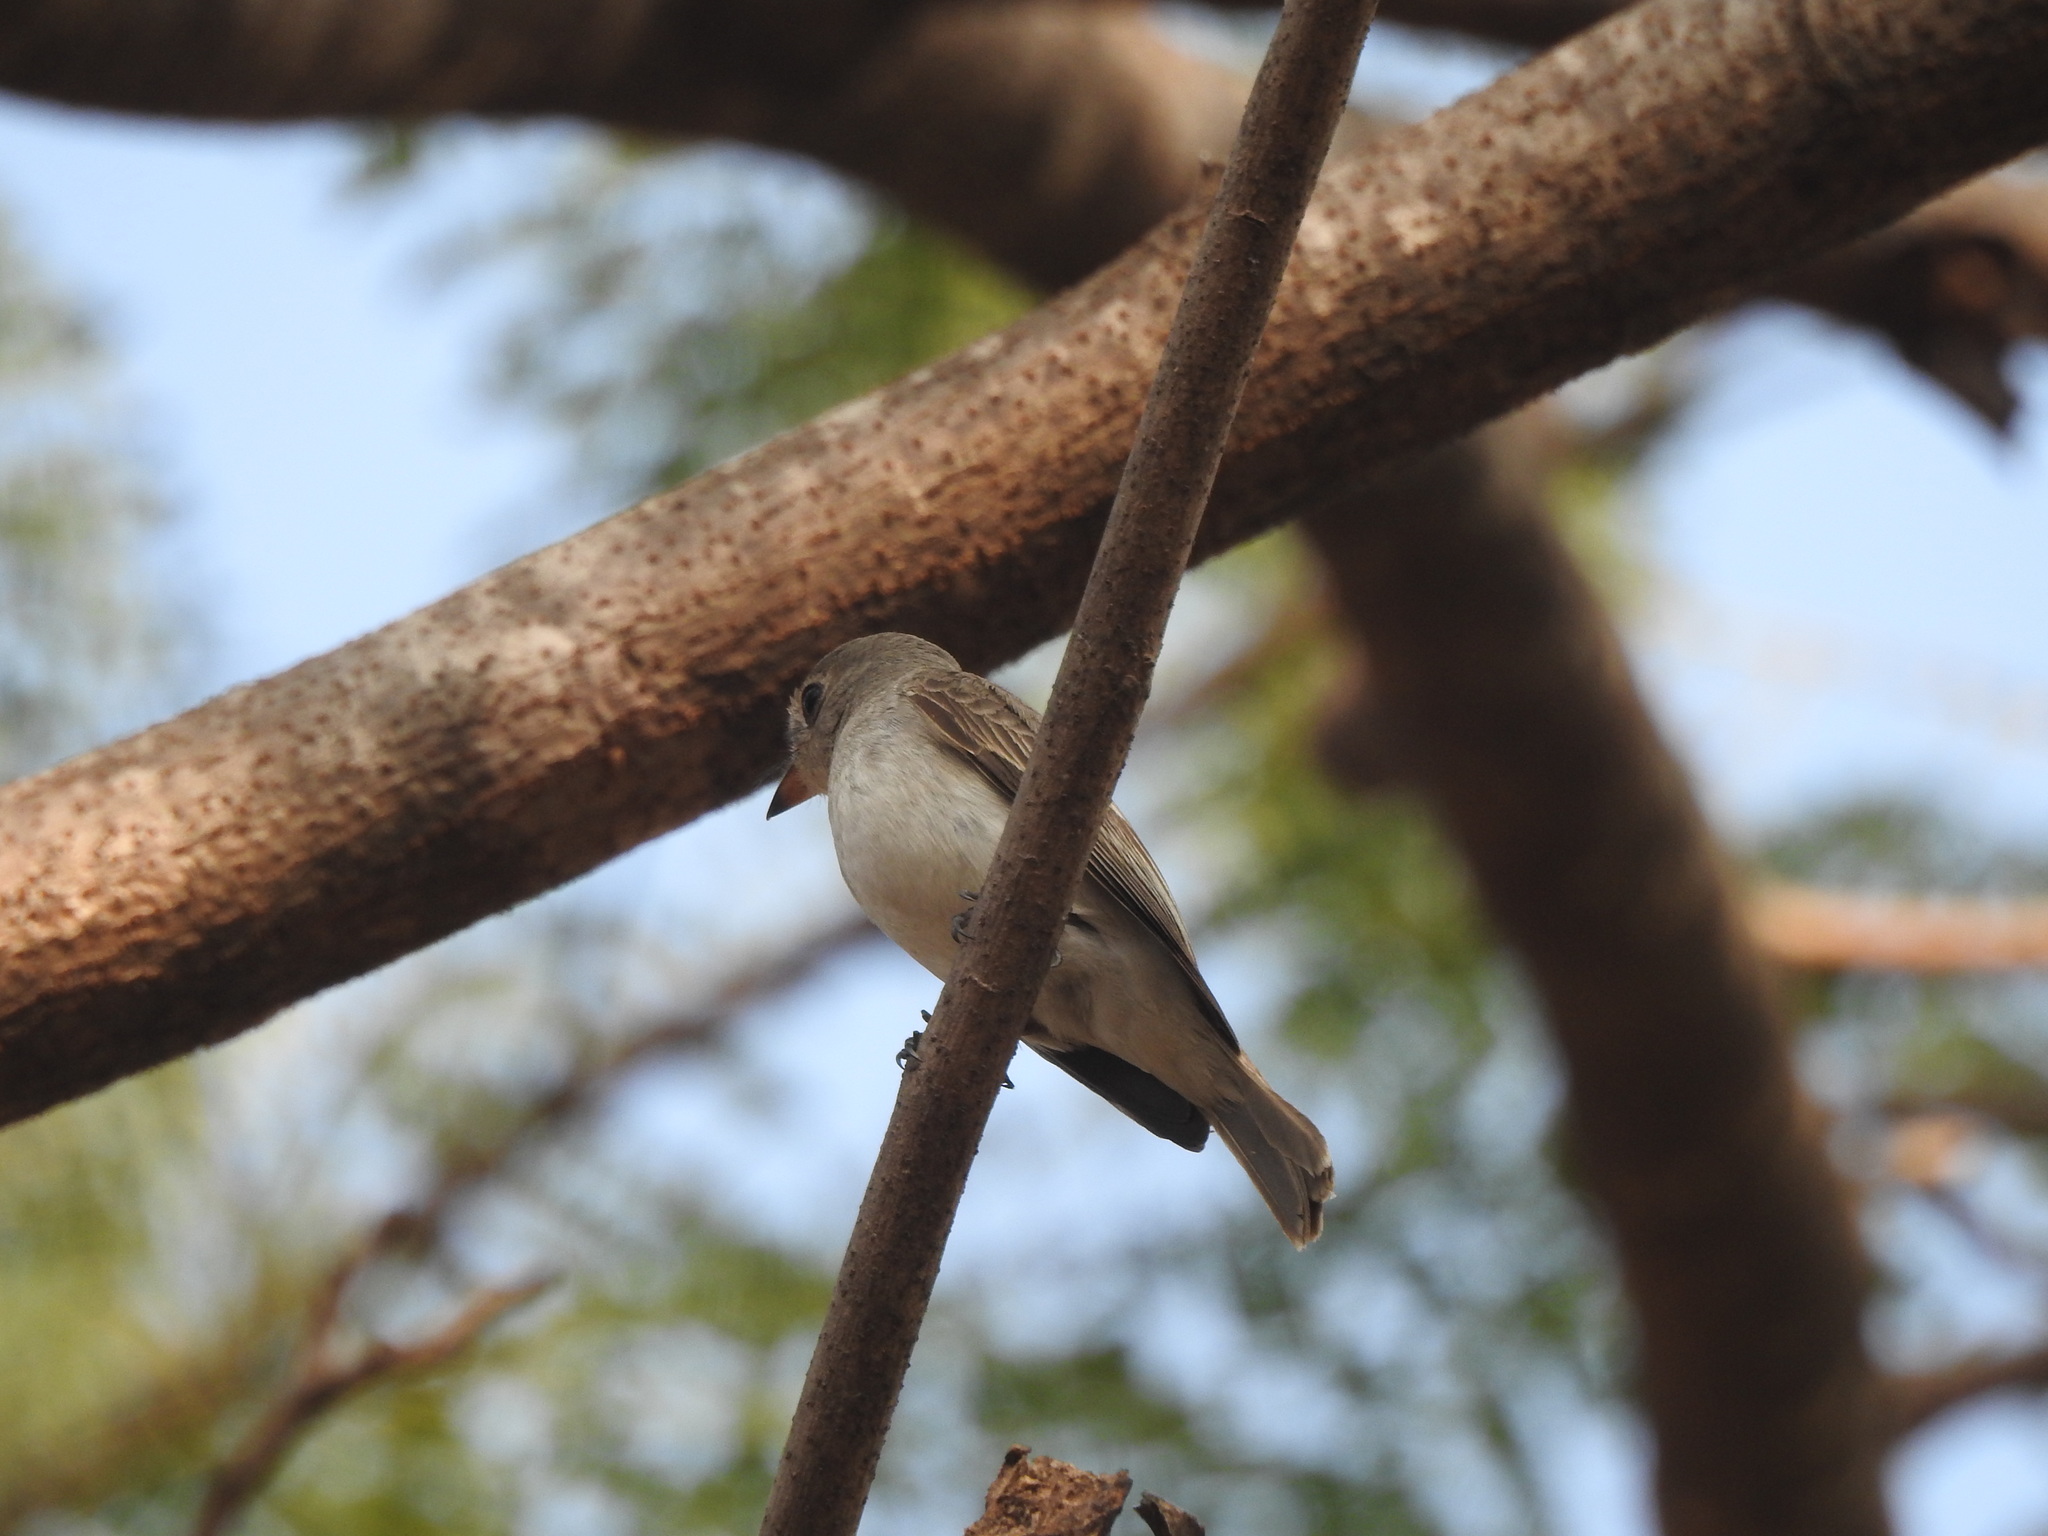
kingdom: Animalia
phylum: Chordata
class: Aves
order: Passeriformes
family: Muscicapidae
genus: Muscicapa
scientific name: Muscicapa latirostris
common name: Asian brown flycatcher
